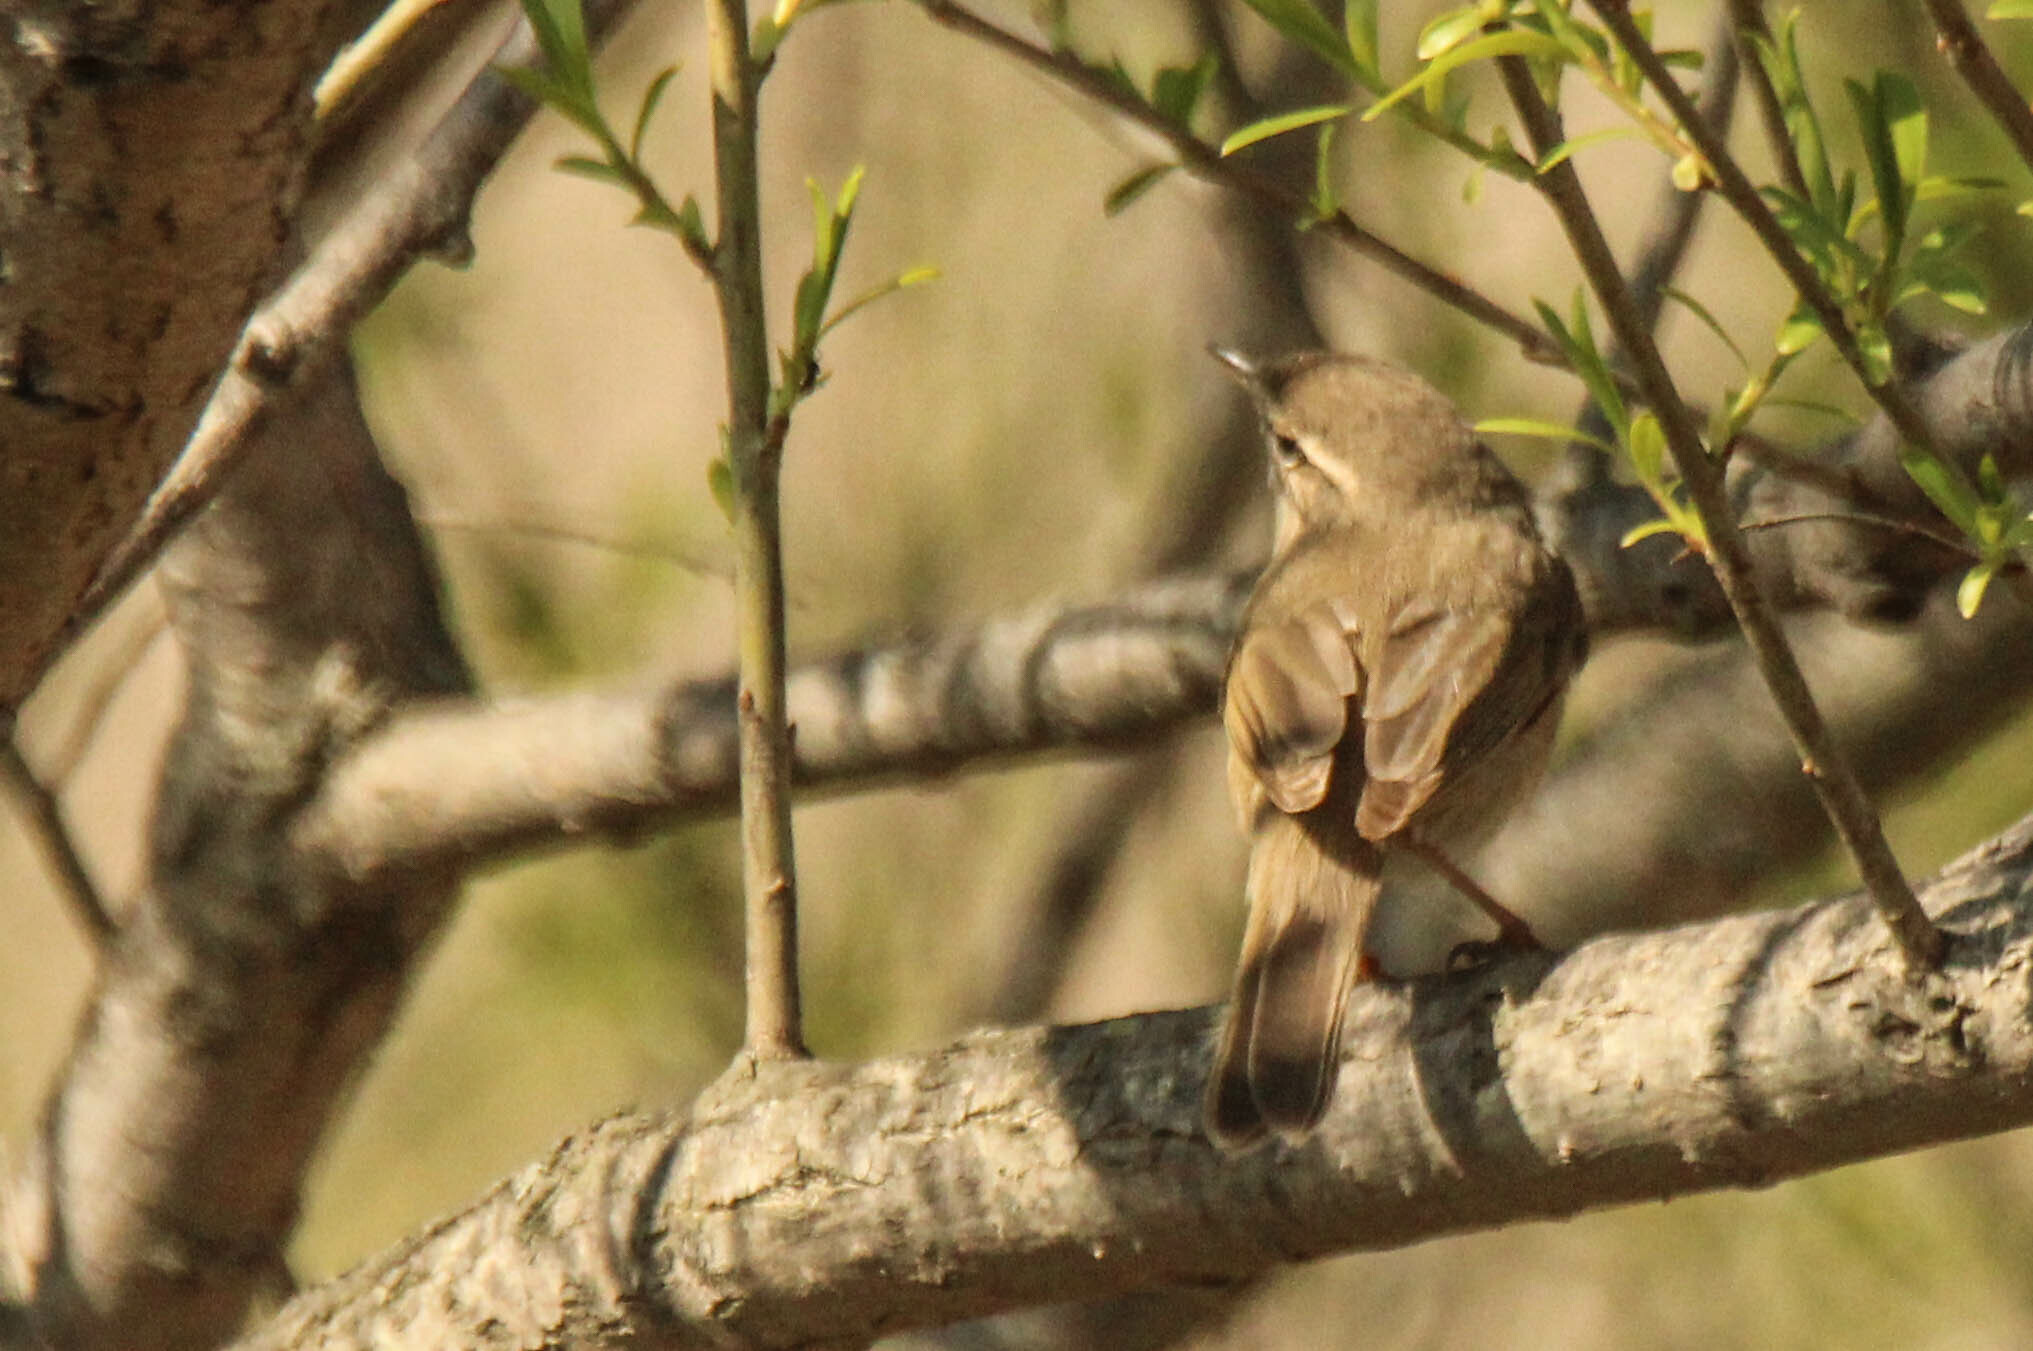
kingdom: Animalia
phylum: Chordata
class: Aves
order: Passeriformes
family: Phylloscopidae
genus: Phylloscopus
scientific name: Phylloscopus fuscatus
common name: Dusky warbler
